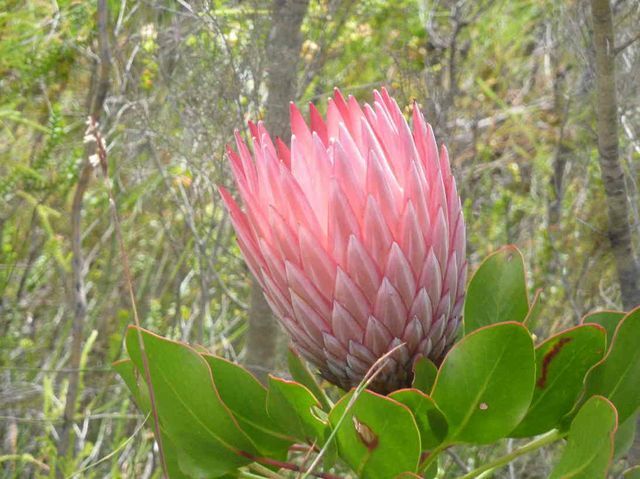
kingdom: Plantae
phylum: Tracheophyta
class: Magnoliopsida
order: Proteales
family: Proteaceae
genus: Protea
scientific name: Protea cynaroides
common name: King protea
